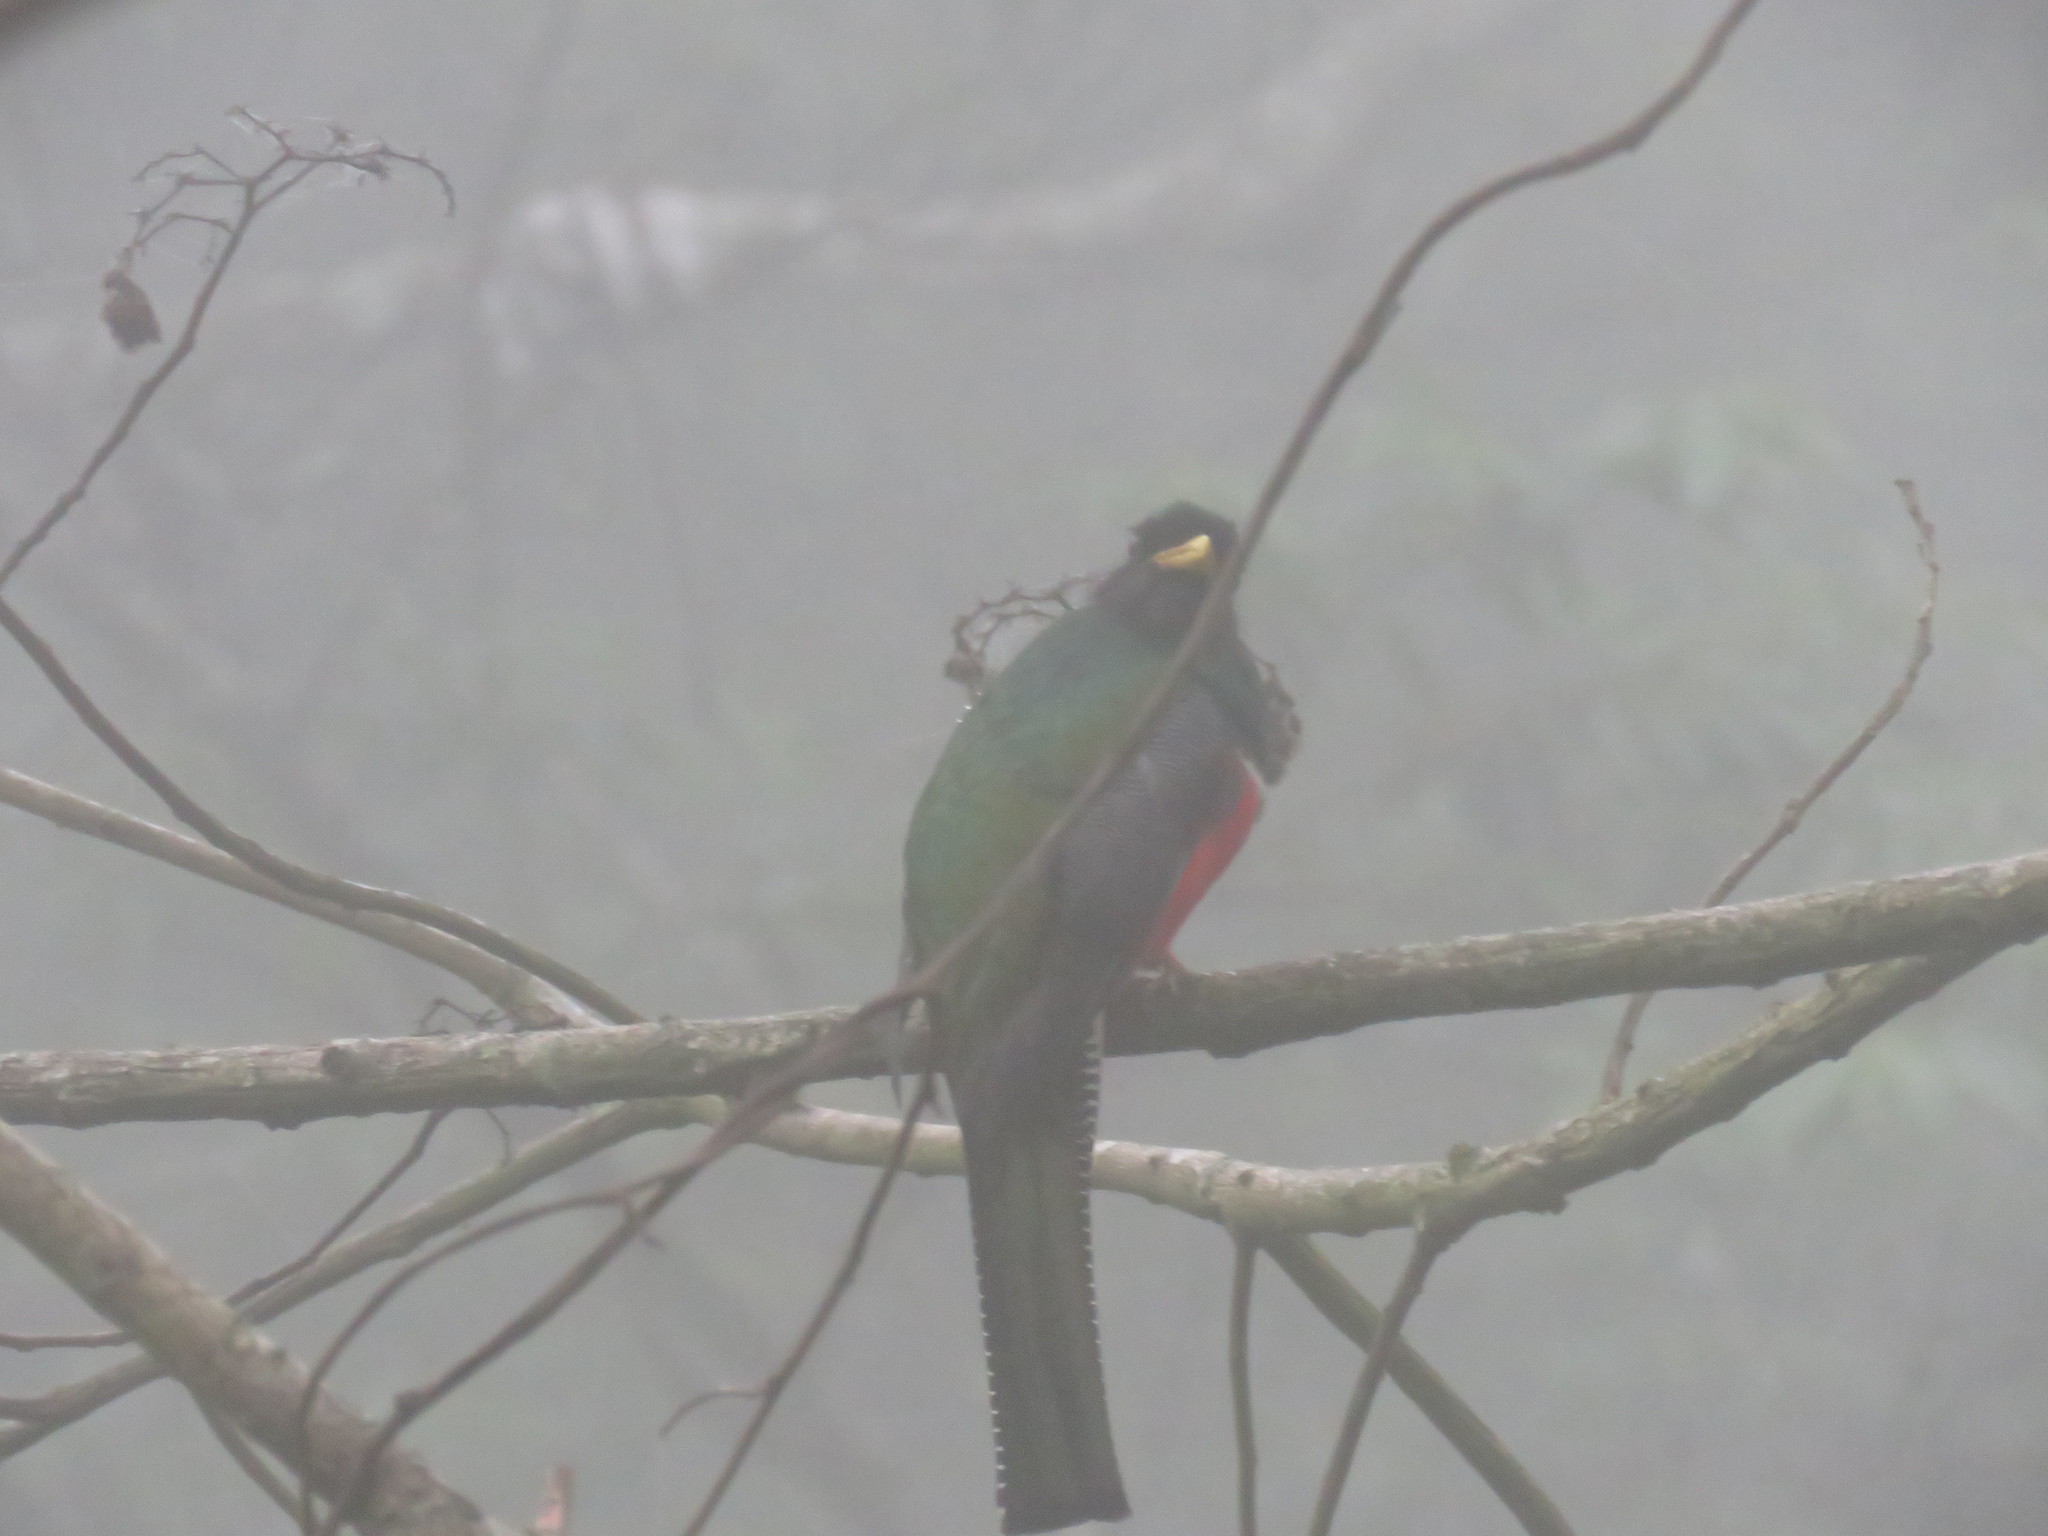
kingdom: Animalia
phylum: Chordata
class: Aves
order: Trogoniformes
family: Trogonidae
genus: Trogon
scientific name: Trogon collaris
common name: Collared trogon
